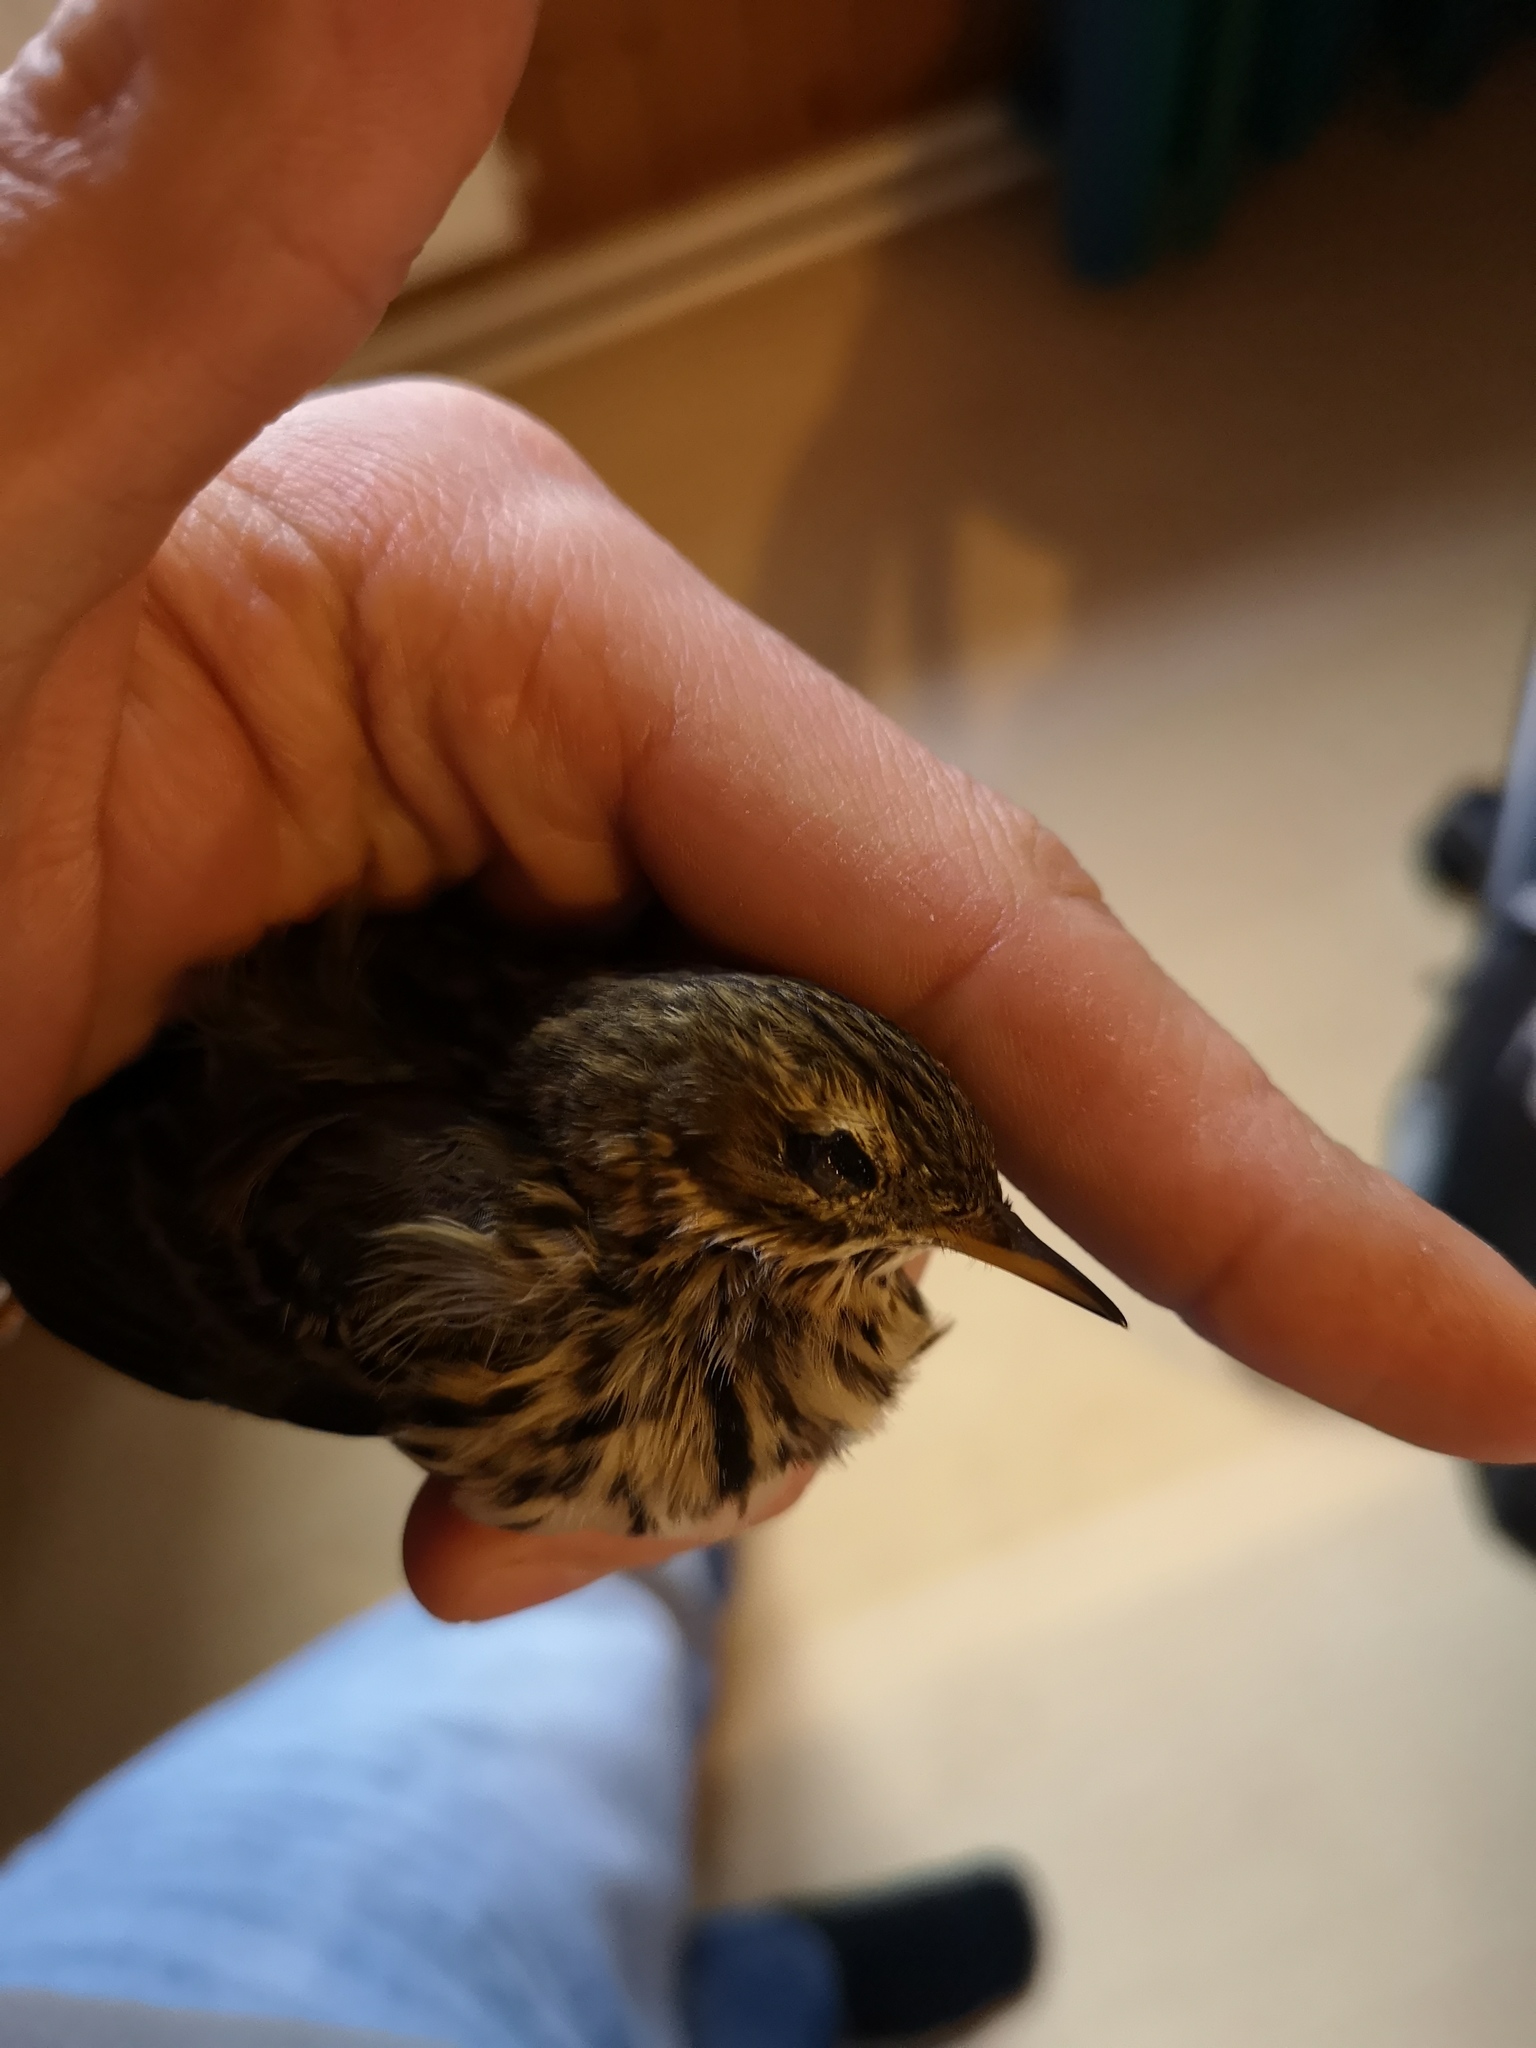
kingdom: Animalia
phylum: Chordata
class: Aves
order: Passeriformes
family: Motacillidae
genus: Anthus
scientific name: Anthus pratensis
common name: Meadow pipit
